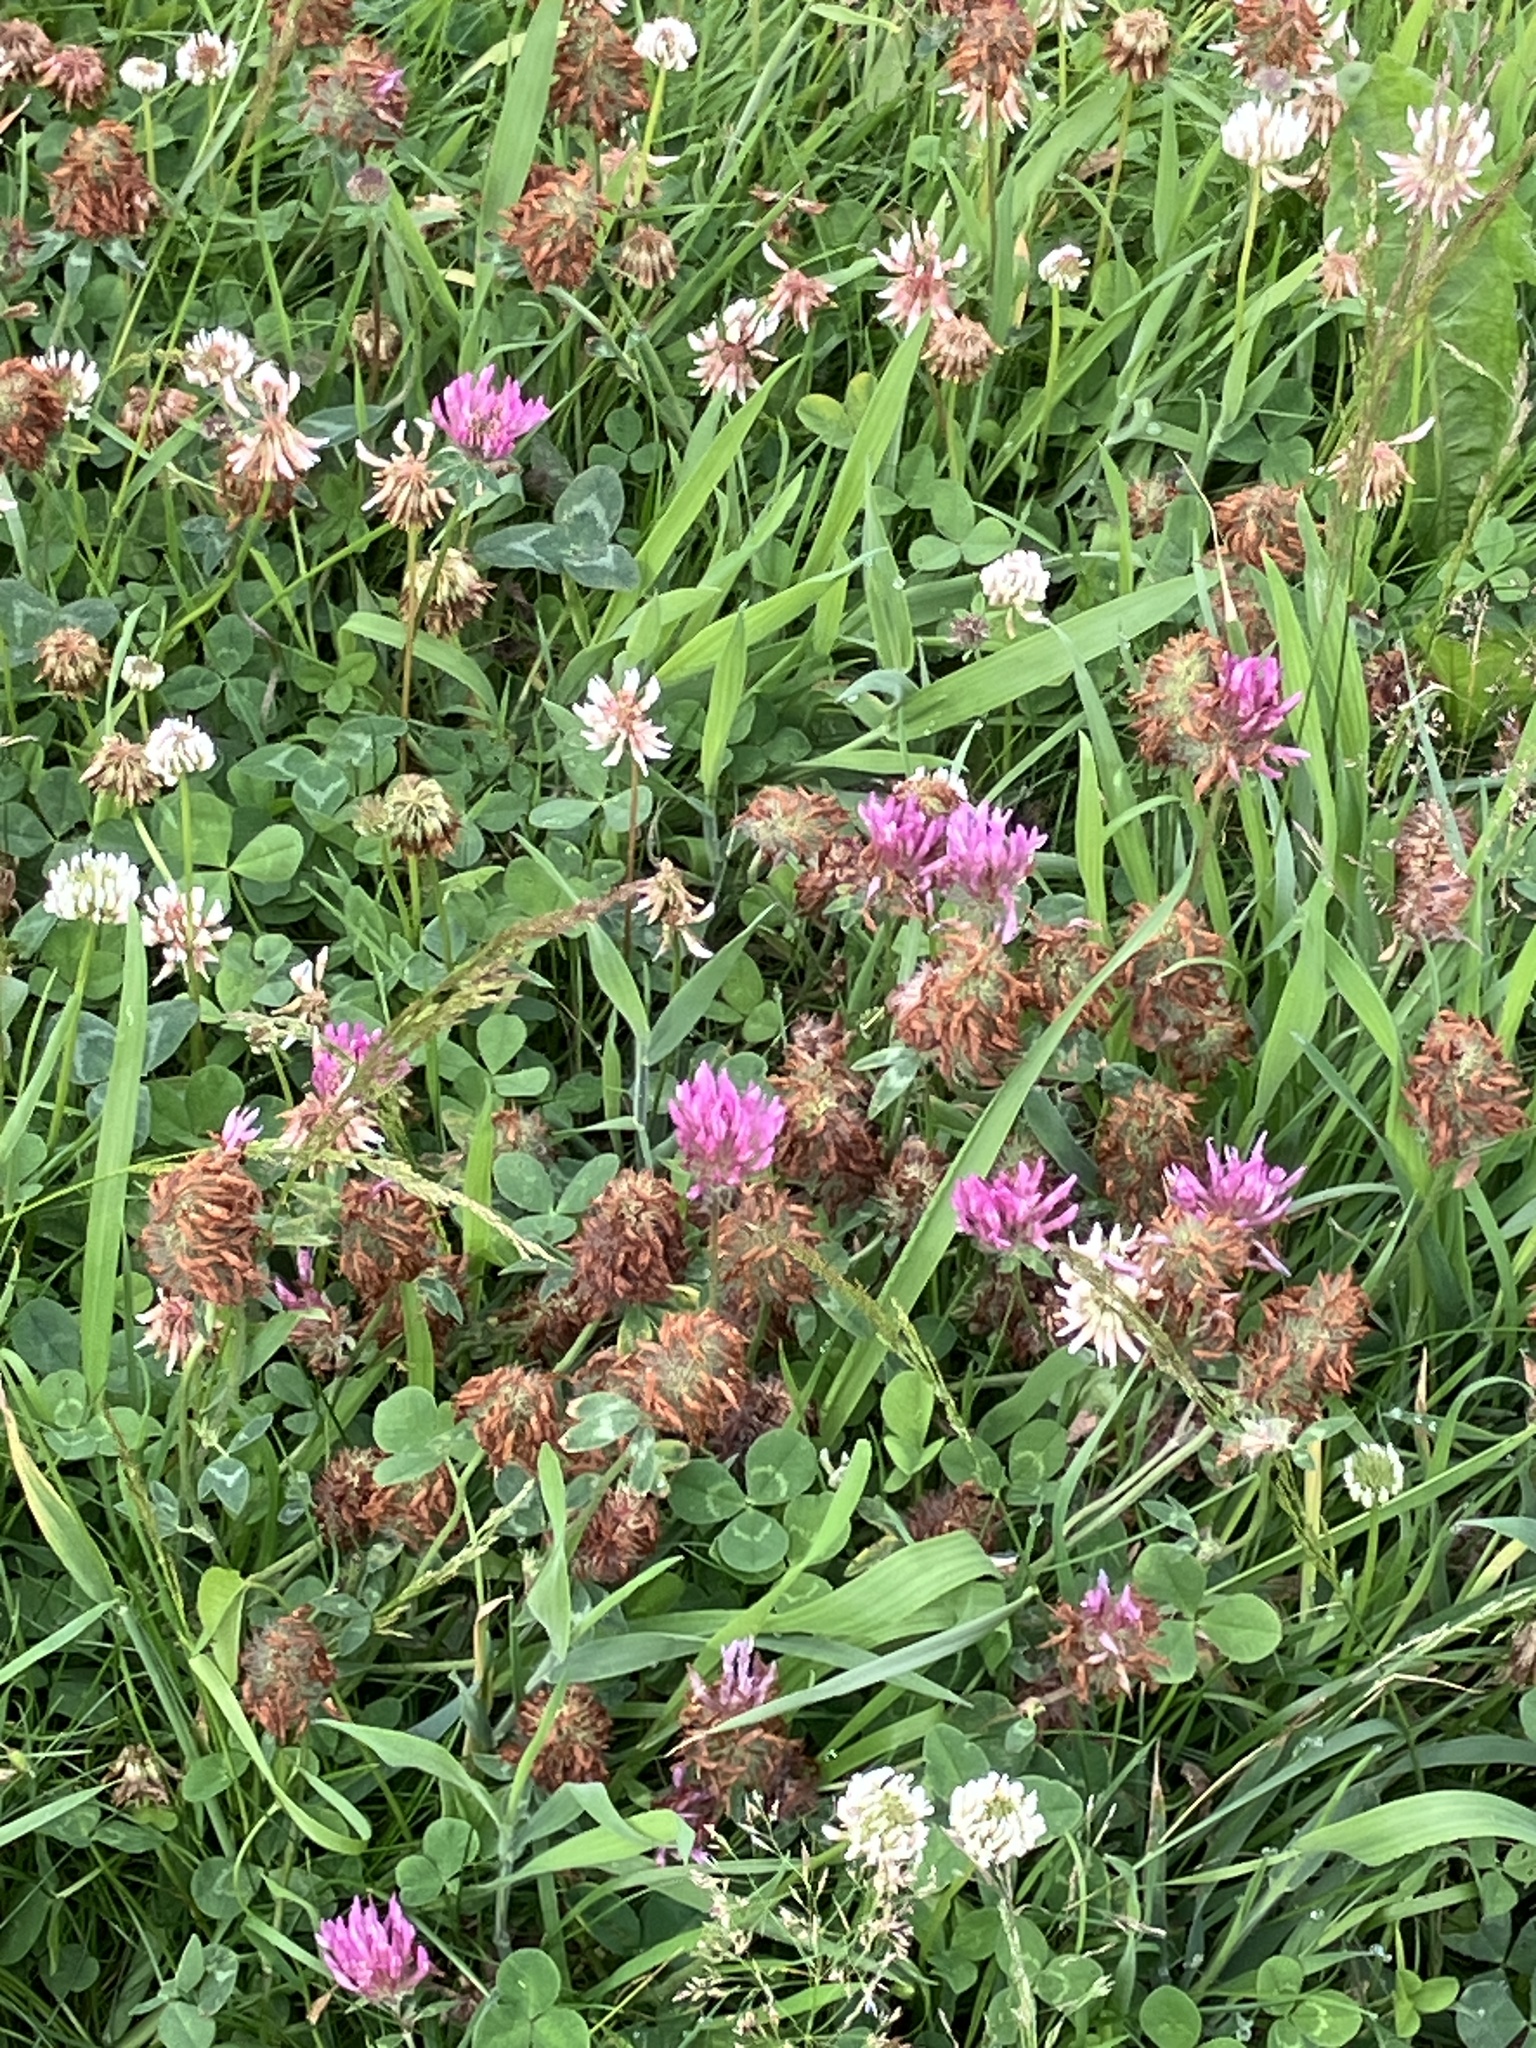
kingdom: Plantae
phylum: Tracheophyta
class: Magnoliopsida
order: Fabales
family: Fabaceae
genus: Trifolium
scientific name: Trifolium pratense
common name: Red clover
